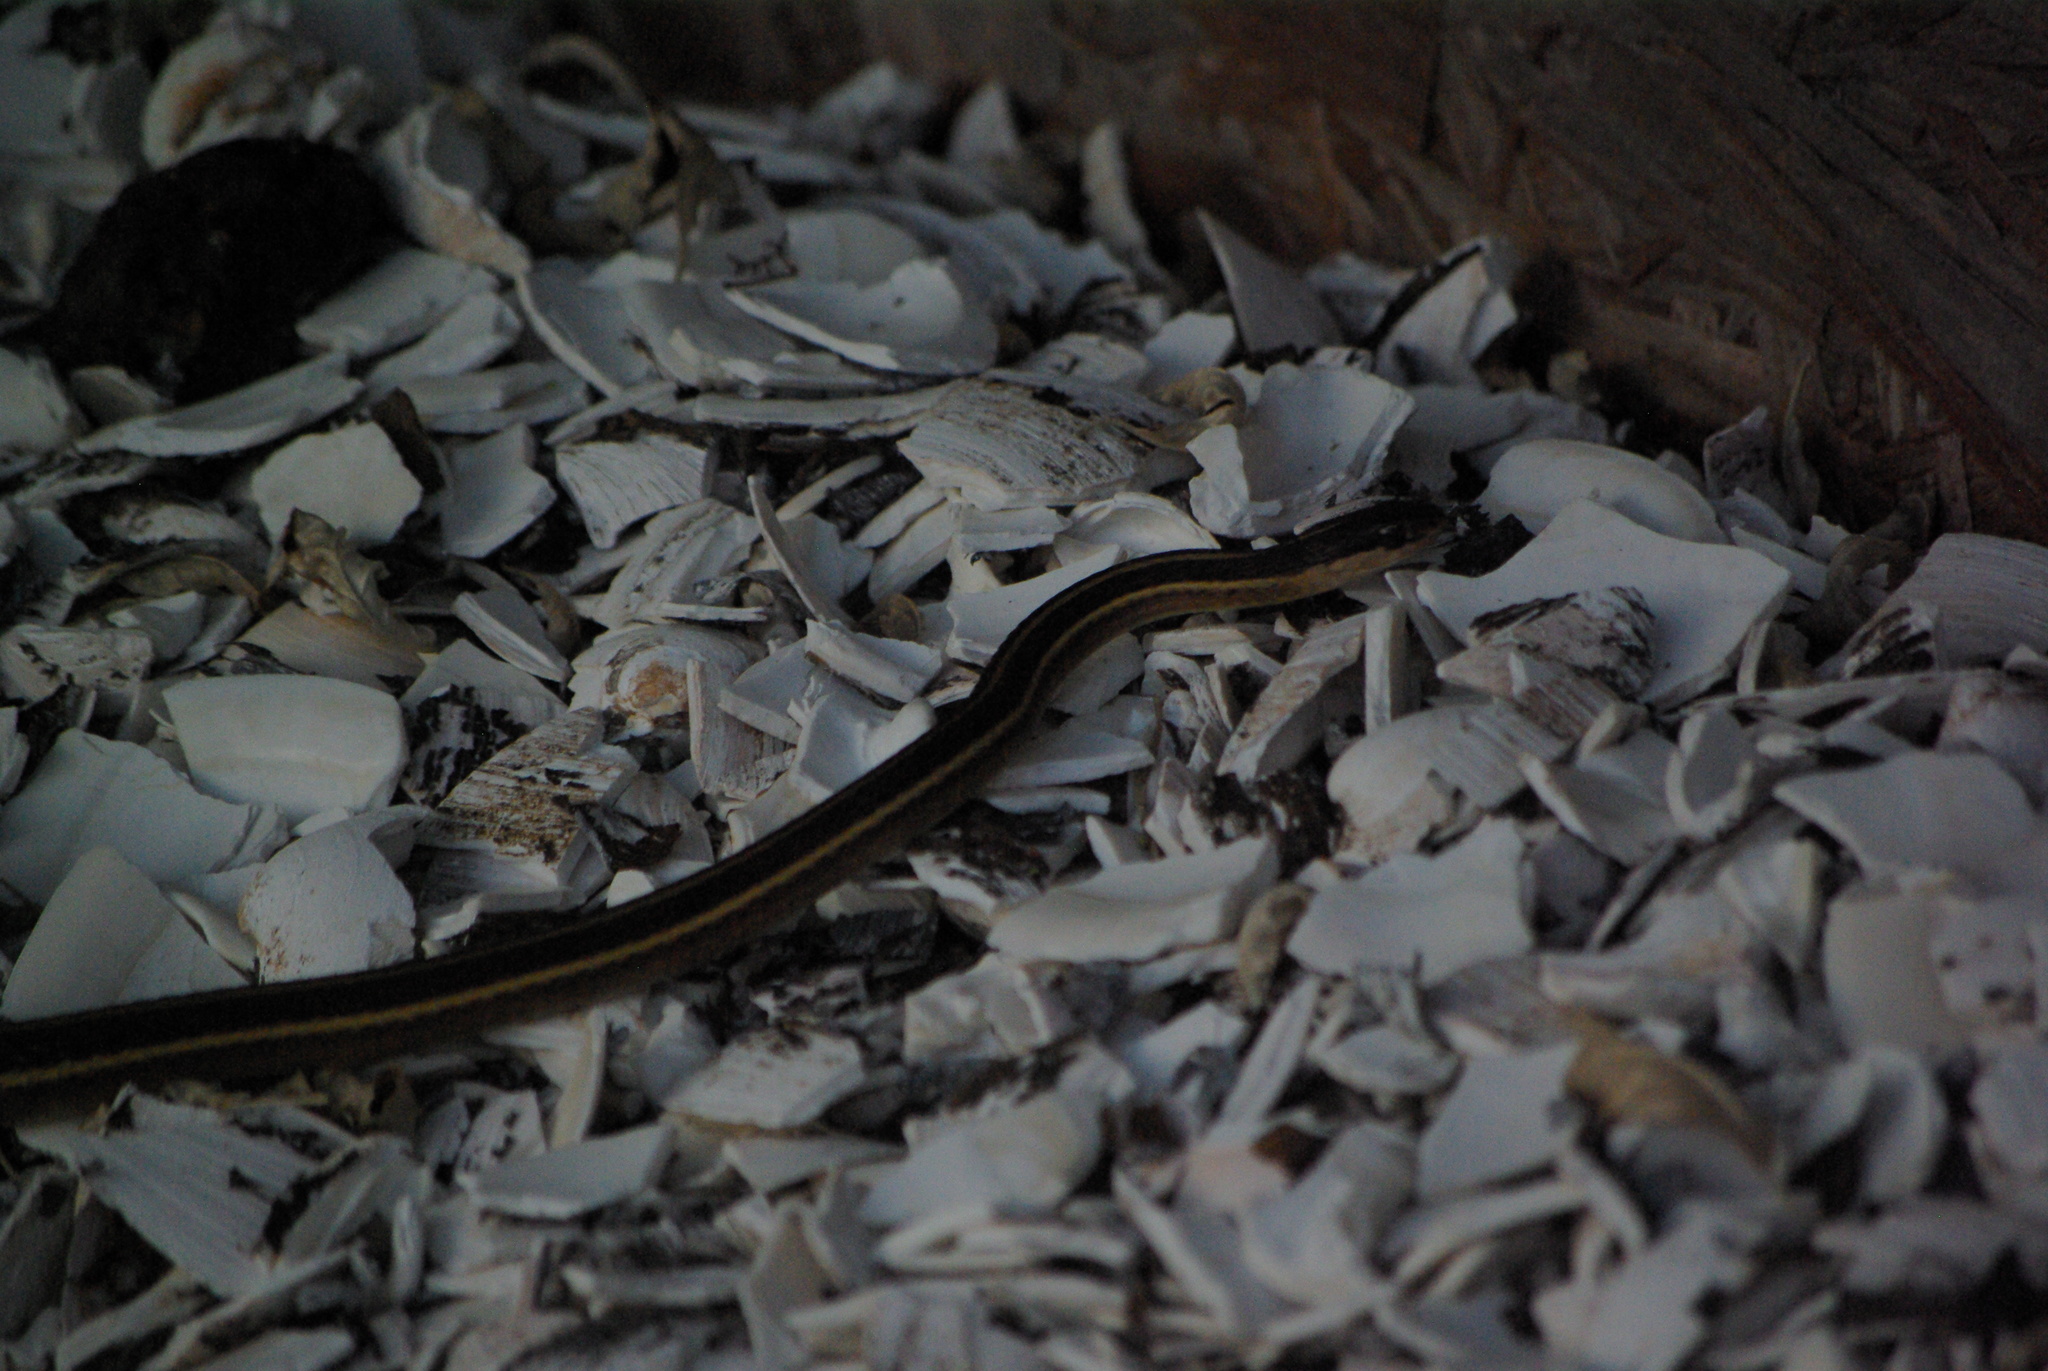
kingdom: Animalia
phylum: Chordata
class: Squamata
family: Colubridae
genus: Thamnophis
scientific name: Thamnophis sirtalis
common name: Common garter snake
